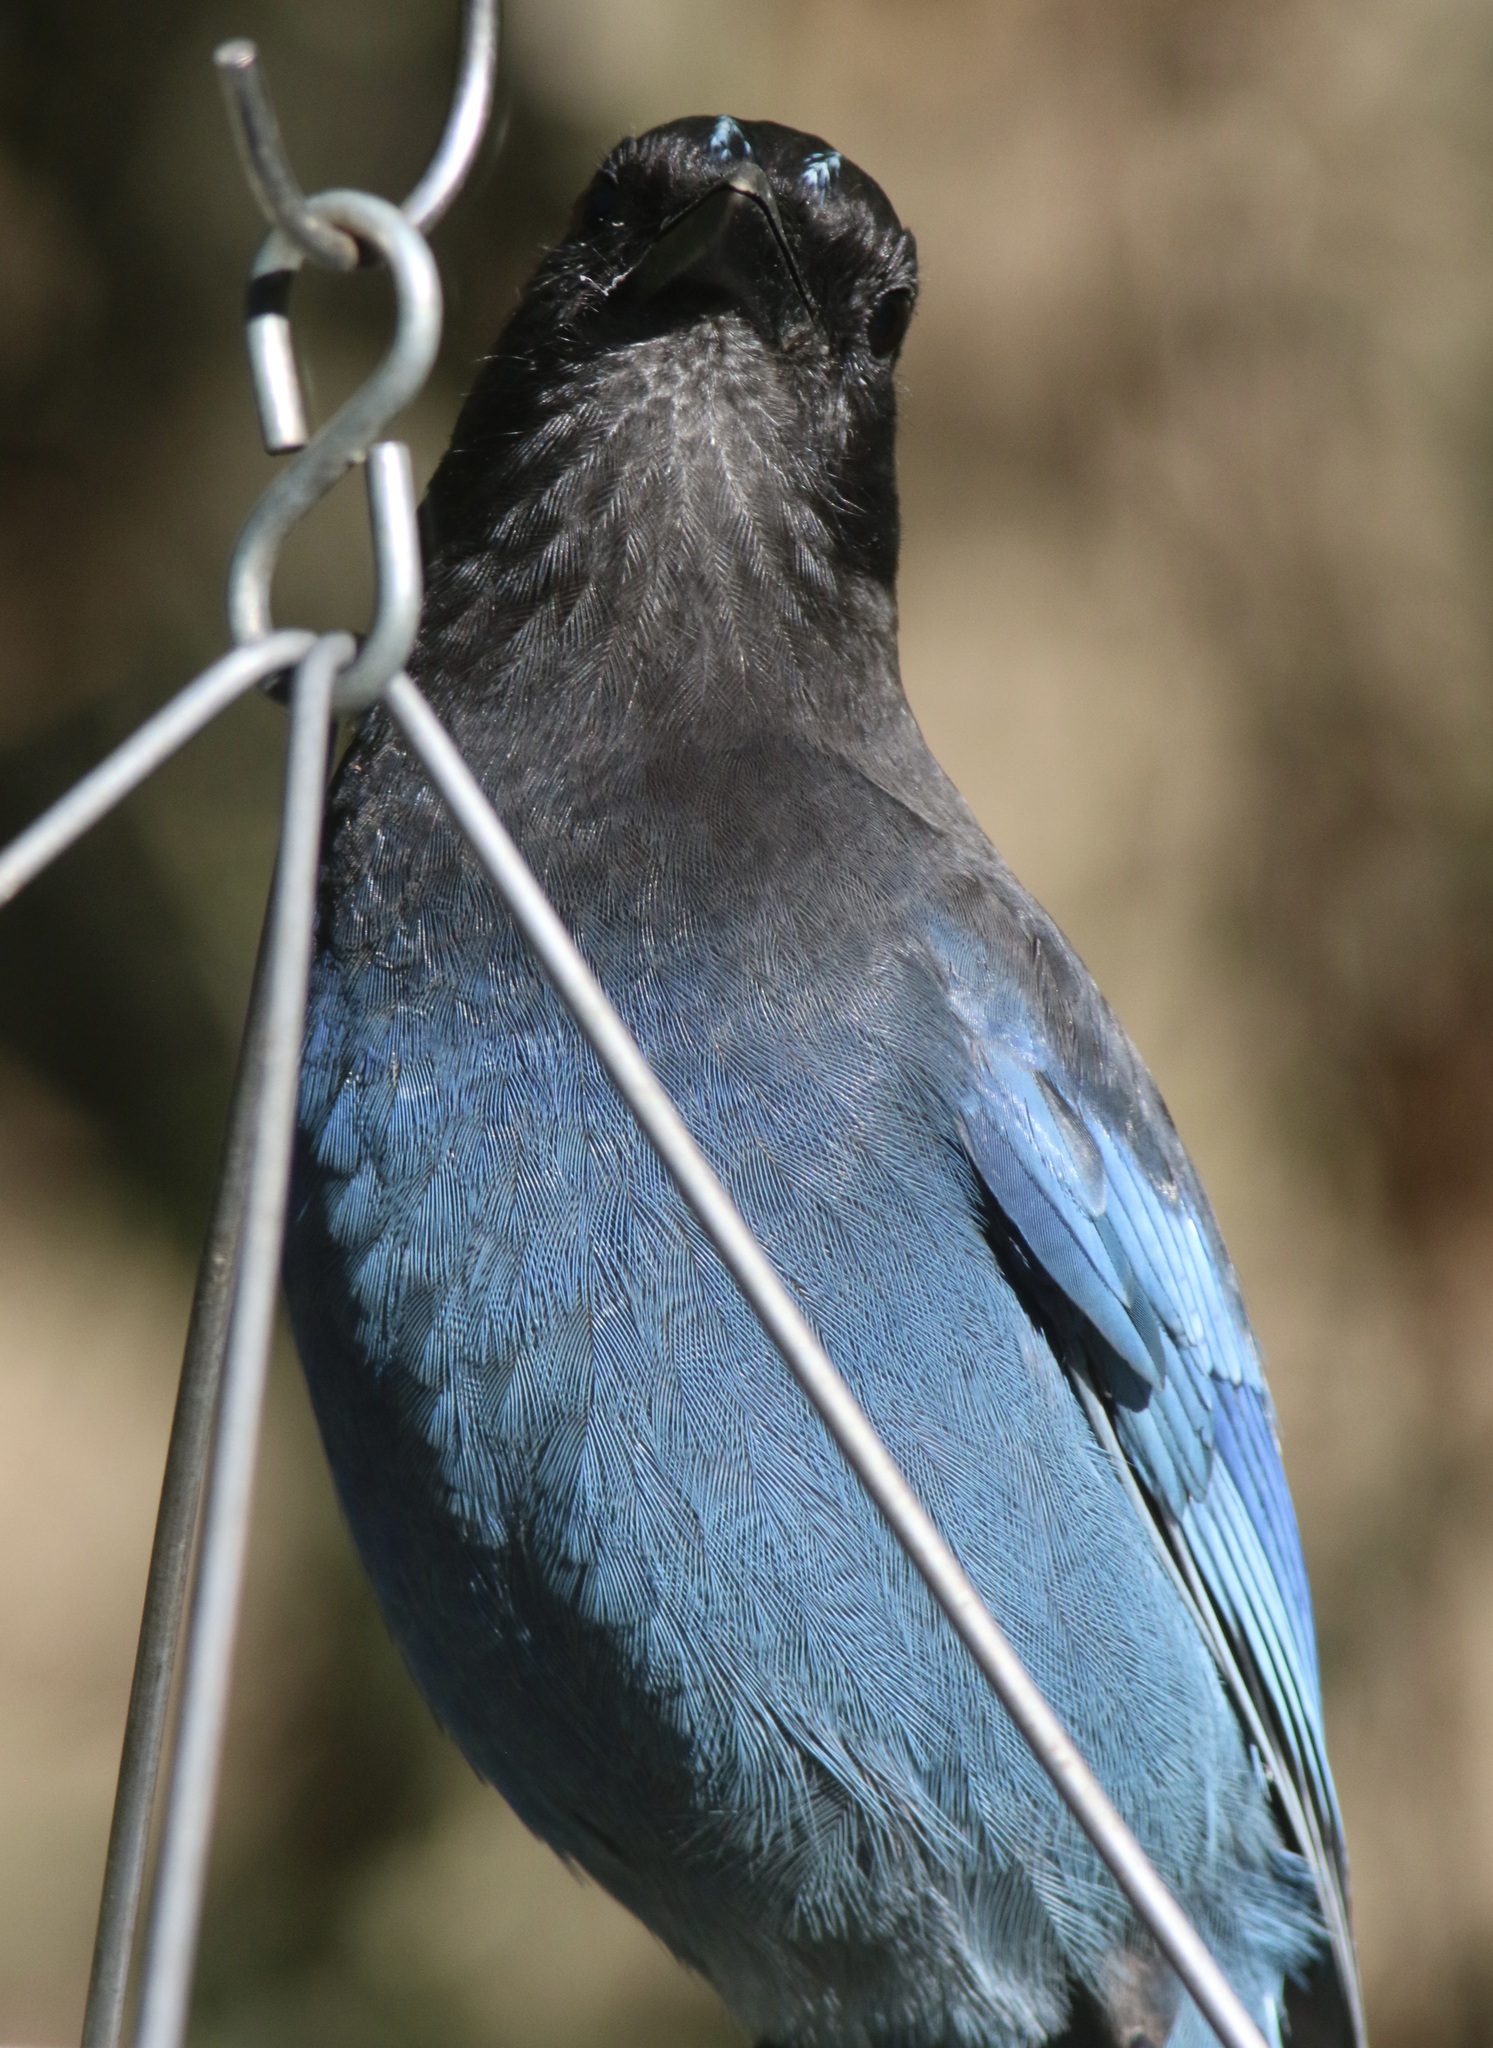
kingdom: Animalia
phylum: Chordata
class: Aves
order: Passeriformes
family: Corvidae
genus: Cyanocitta
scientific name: Cyanocitta stelleri
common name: Steller's jay
